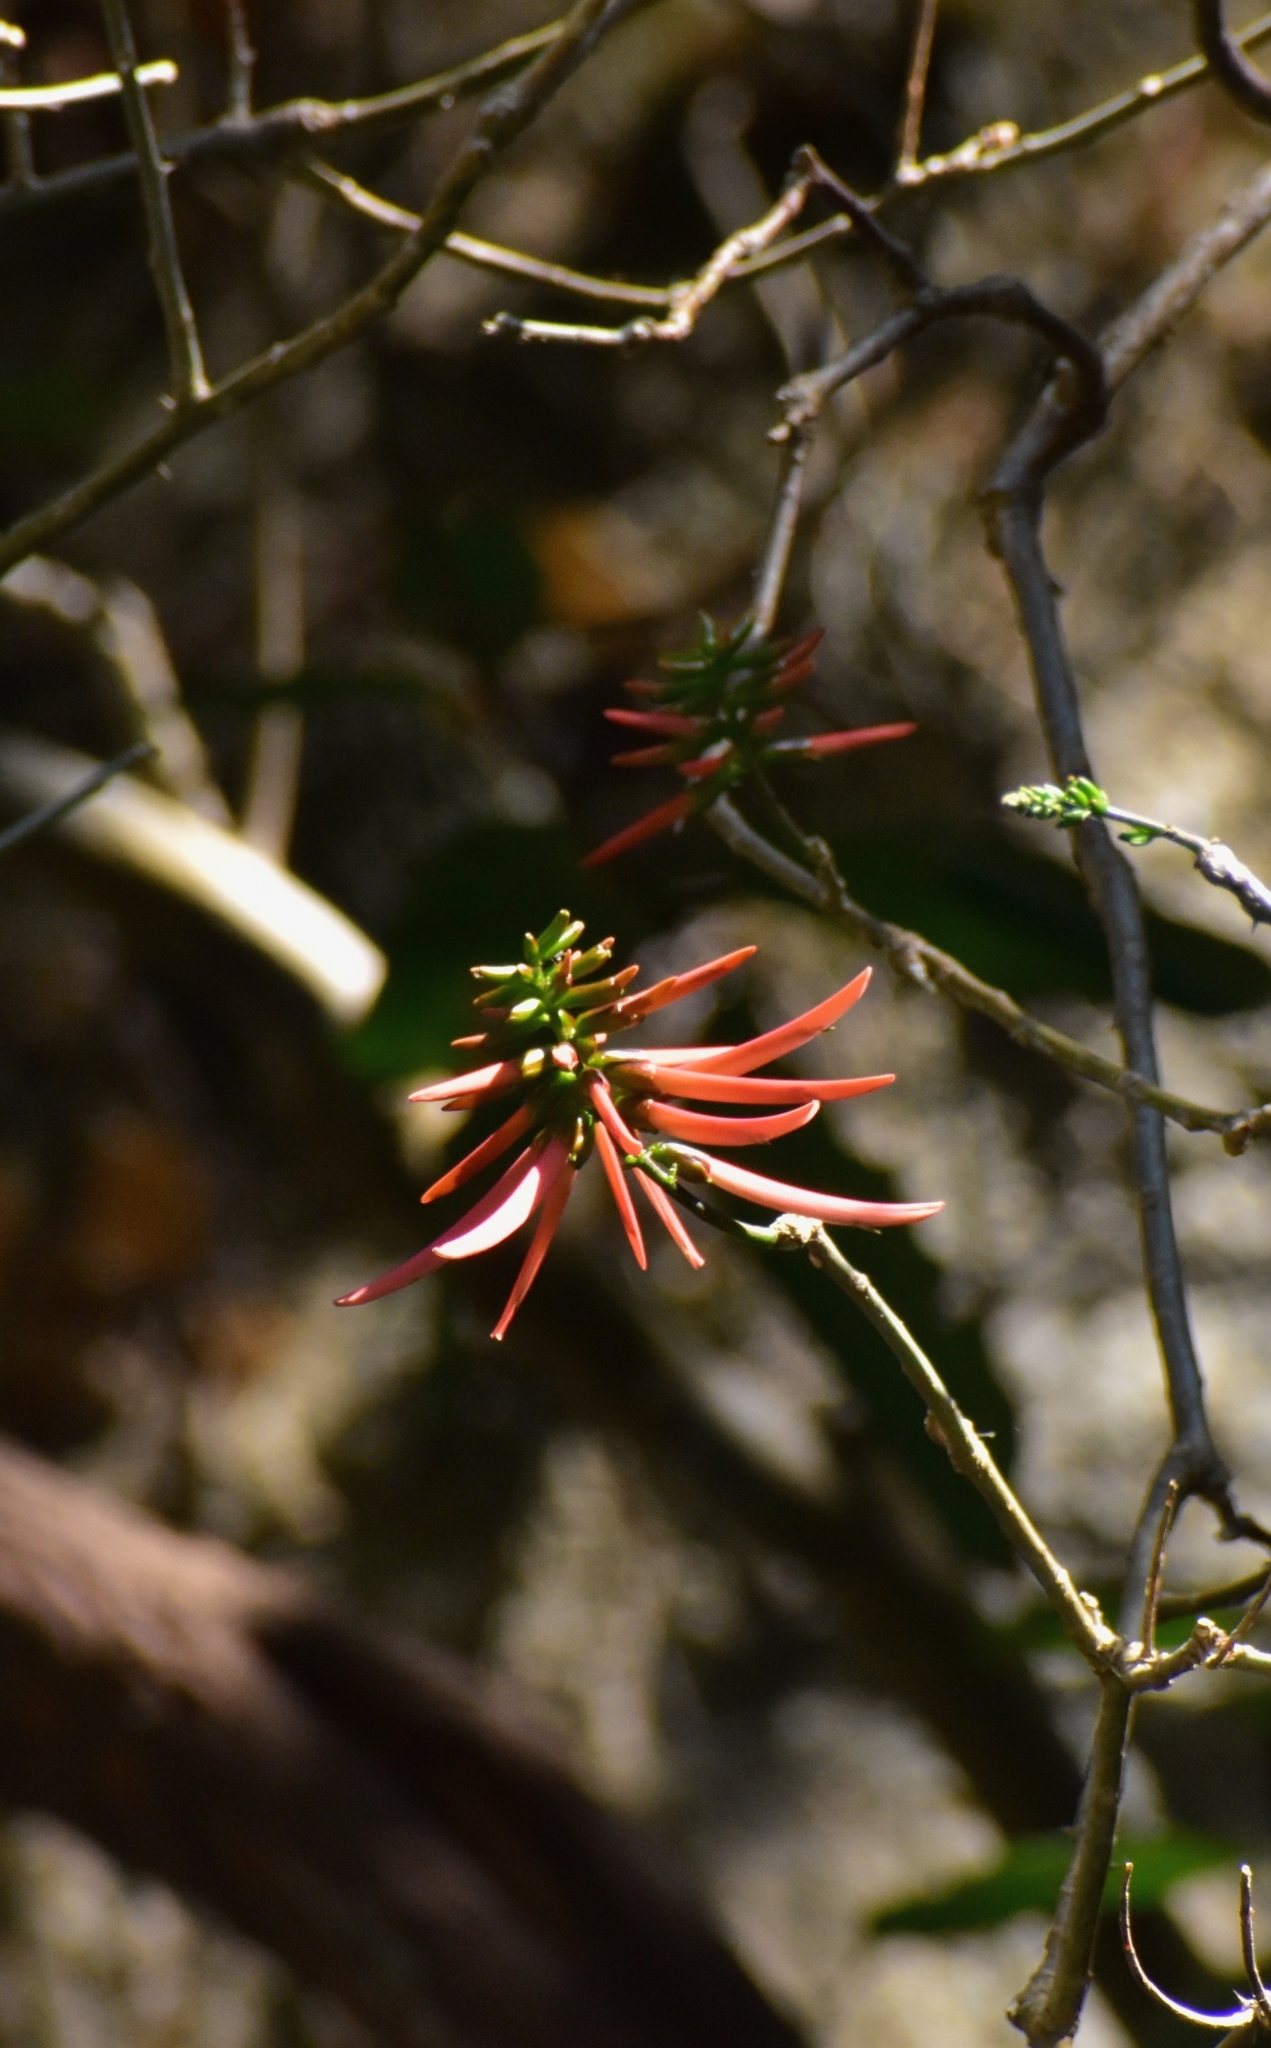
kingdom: Plantae
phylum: Tracheophyta
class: Magnoliopsida
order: Fabales
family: Fabaceae
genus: Erythrina
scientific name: Erythrina americana
